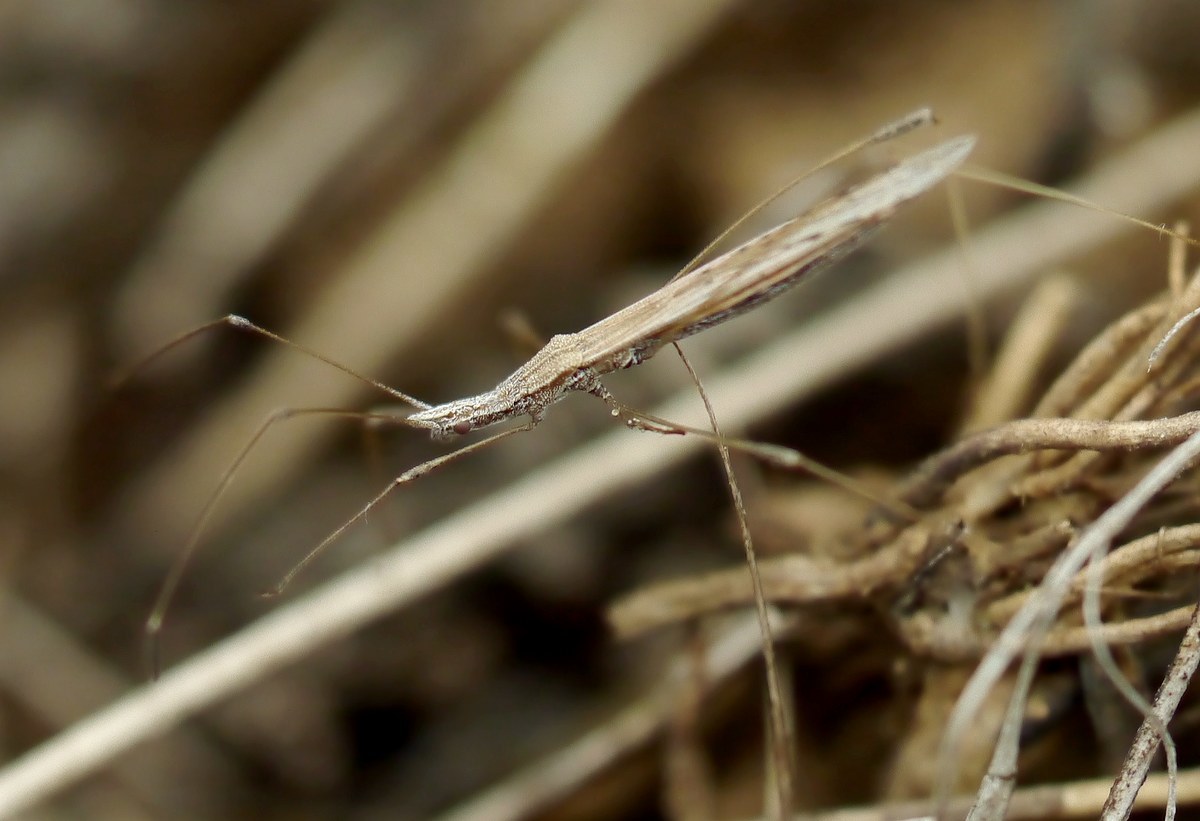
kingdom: Animalia
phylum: Arthropoda
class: Insecta
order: Hemiptera
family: Berytidae
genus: Neides
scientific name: Neides tipularius
